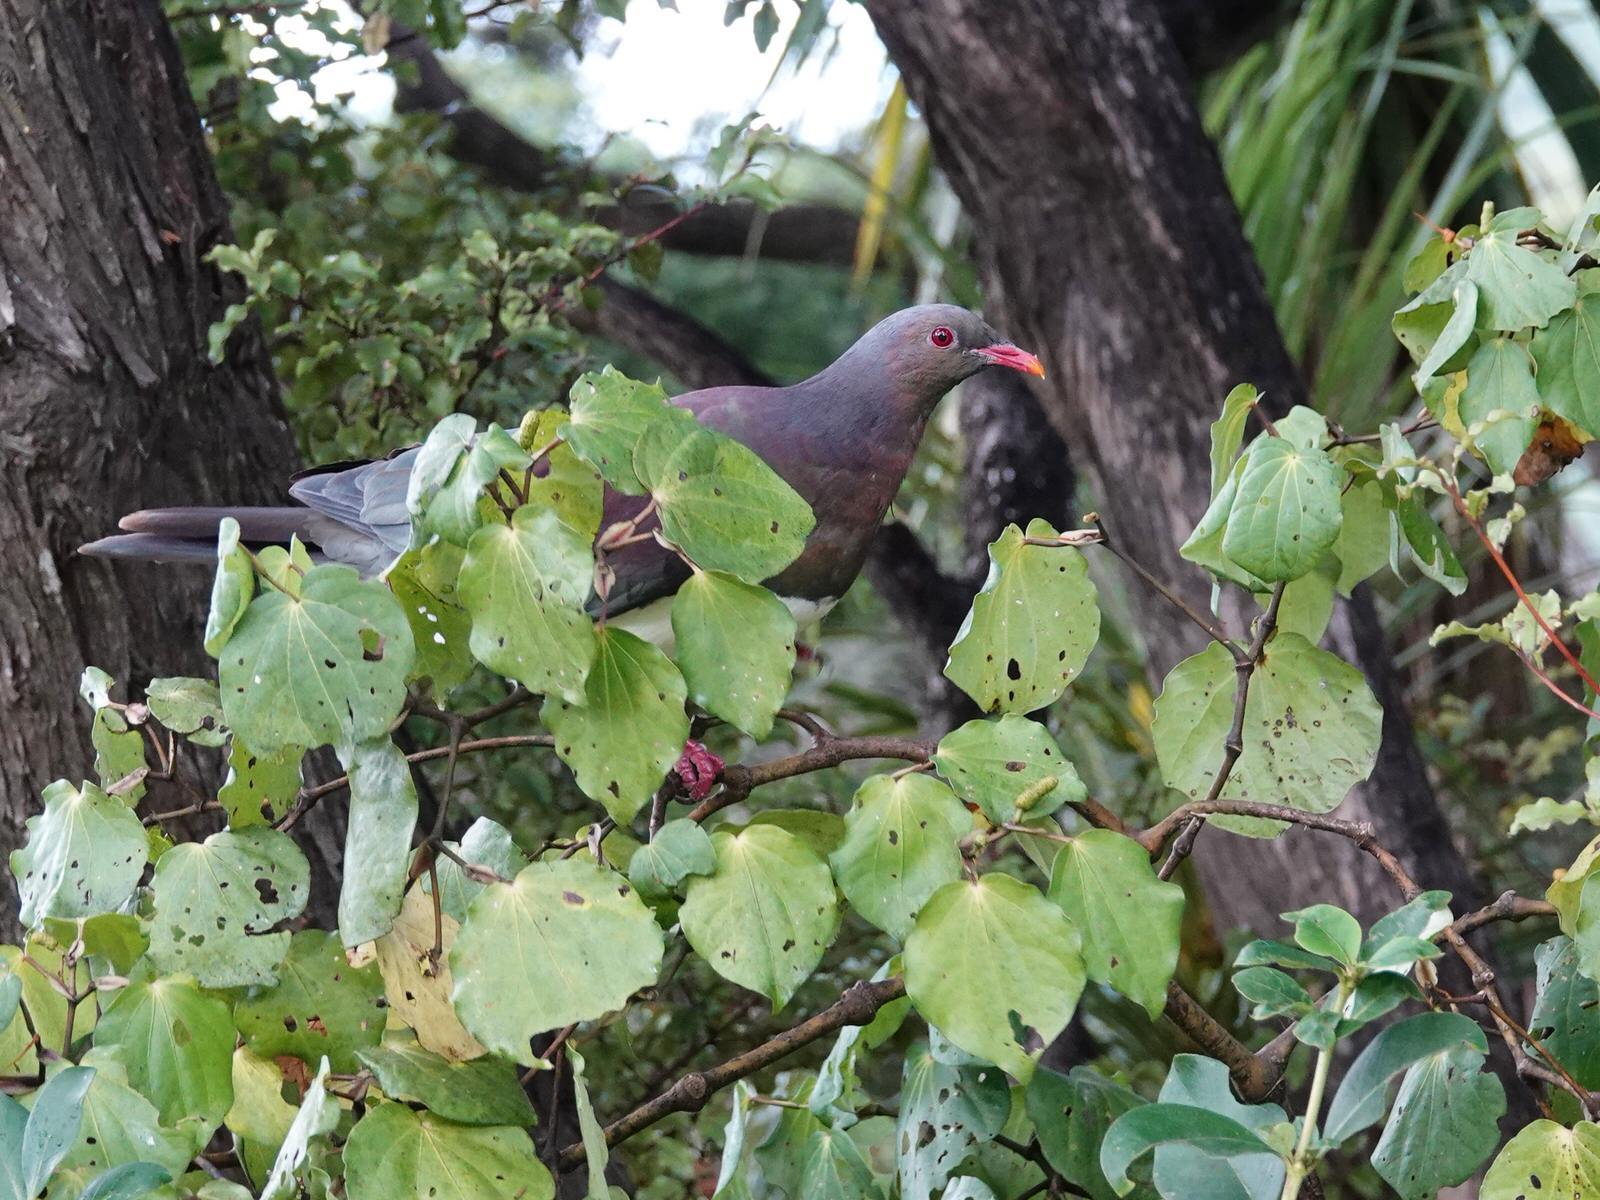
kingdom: Animalia
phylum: Chordata
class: Aves
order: Columbiformes
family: Columbidae
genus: Hemiphaga
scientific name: Hemiphaga novaeseelandiae
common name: New zealand pigeon
